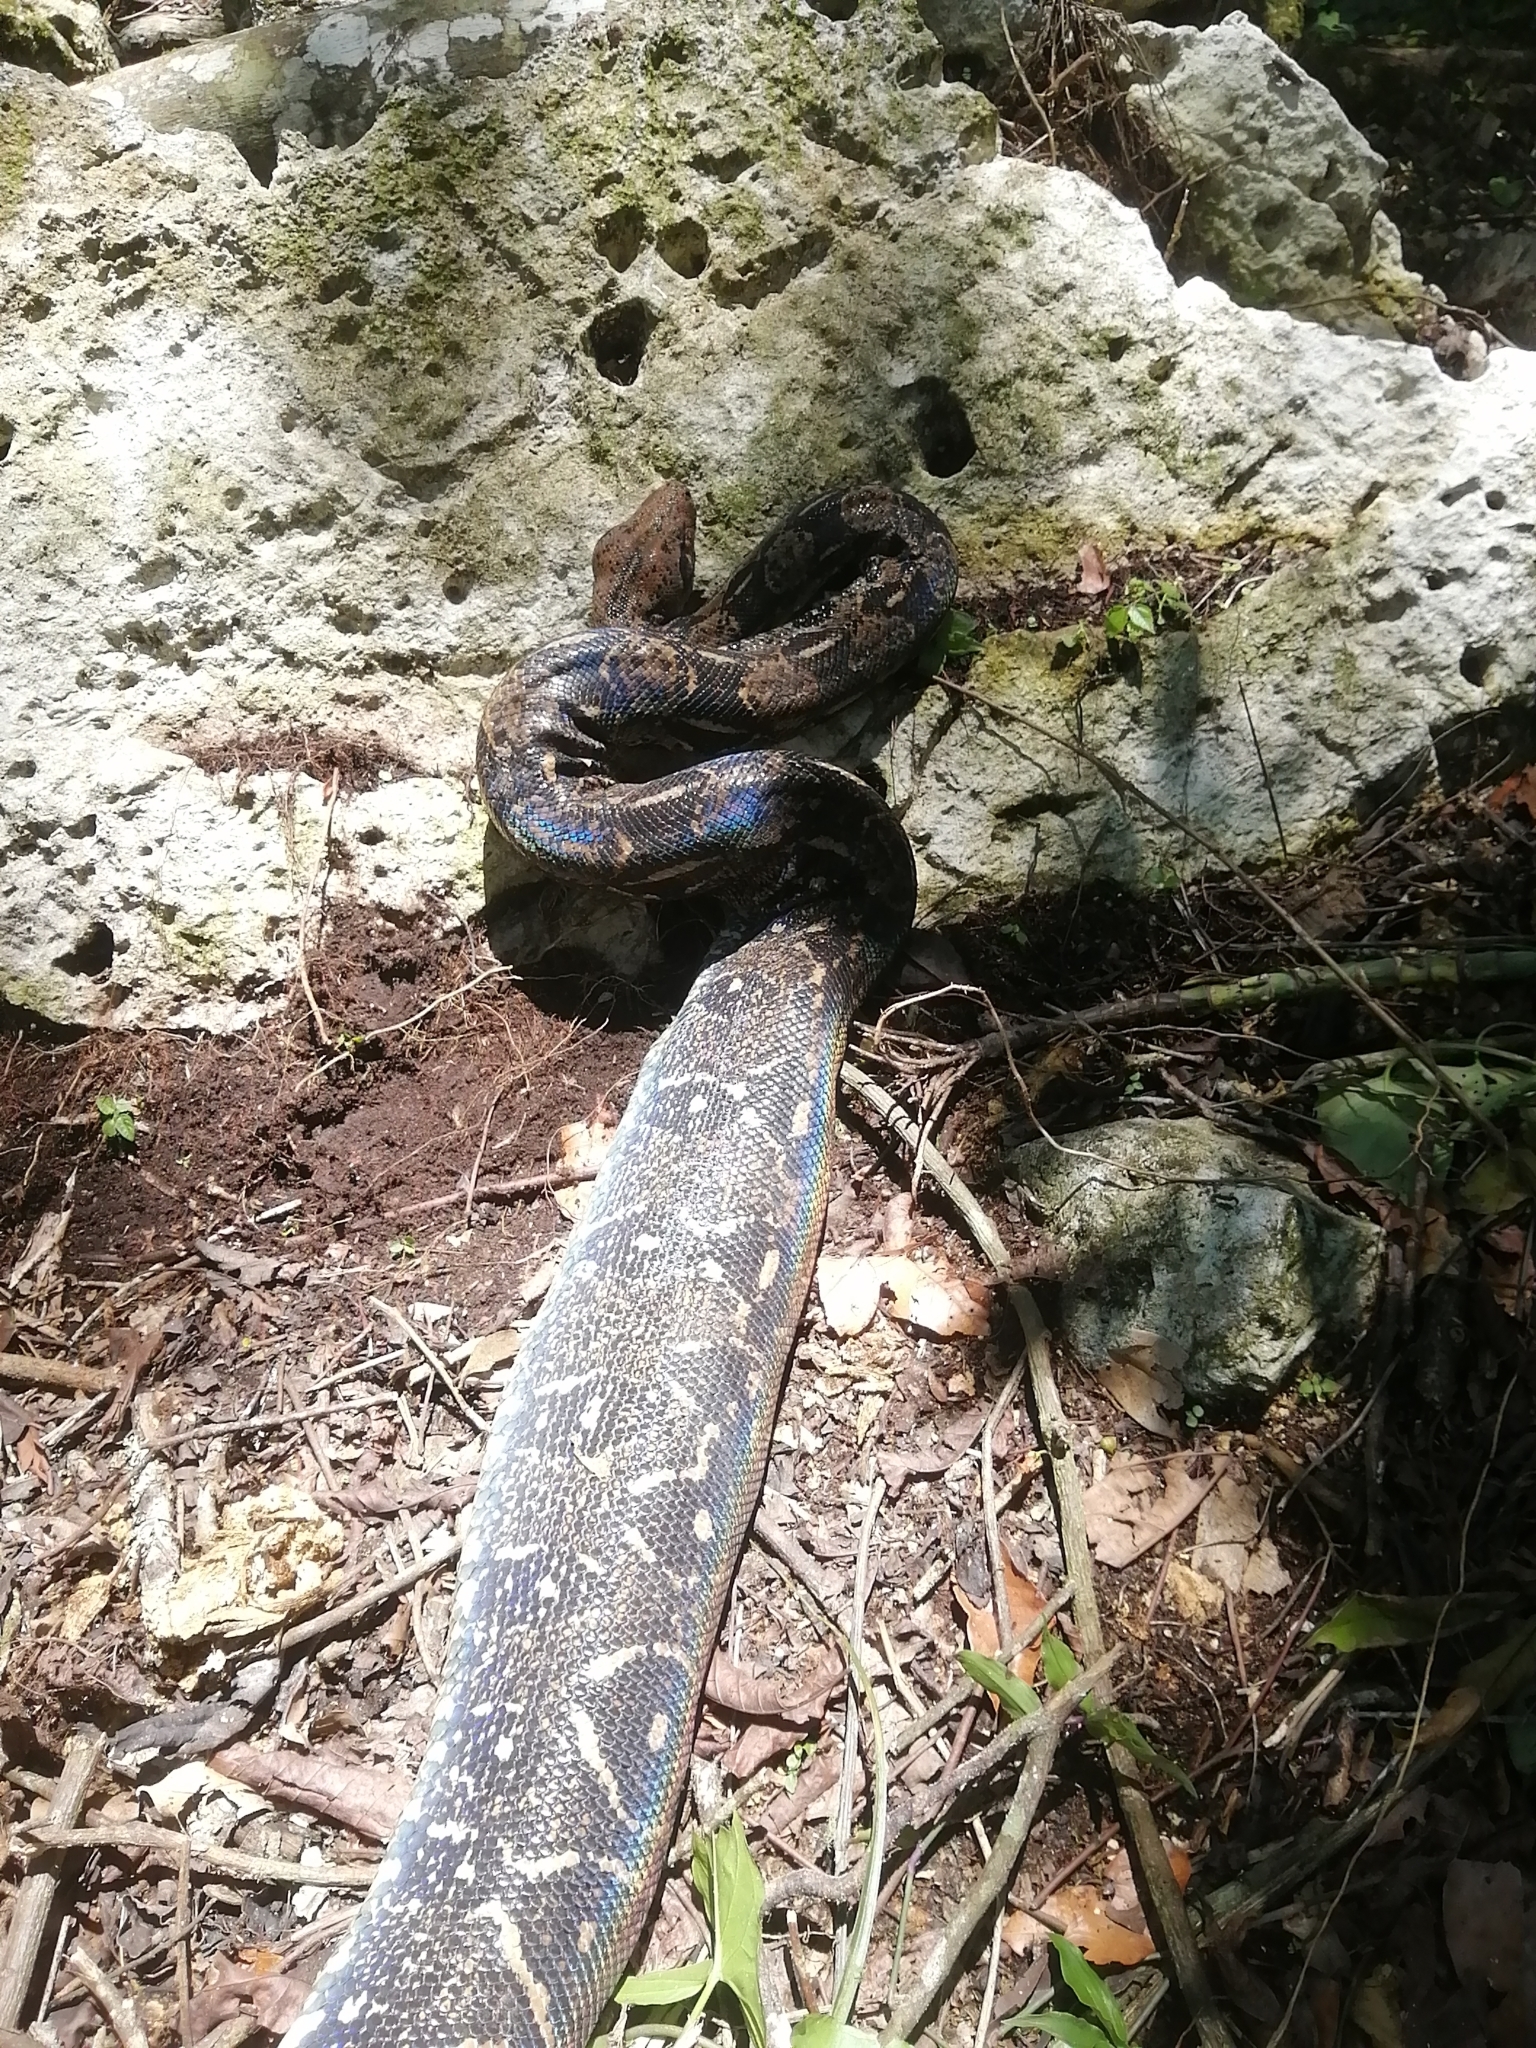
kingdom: Animalia
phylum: Chordata
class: Squamata
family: Boidae
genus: Boa
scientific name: Boa imperator
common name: Central american boa
